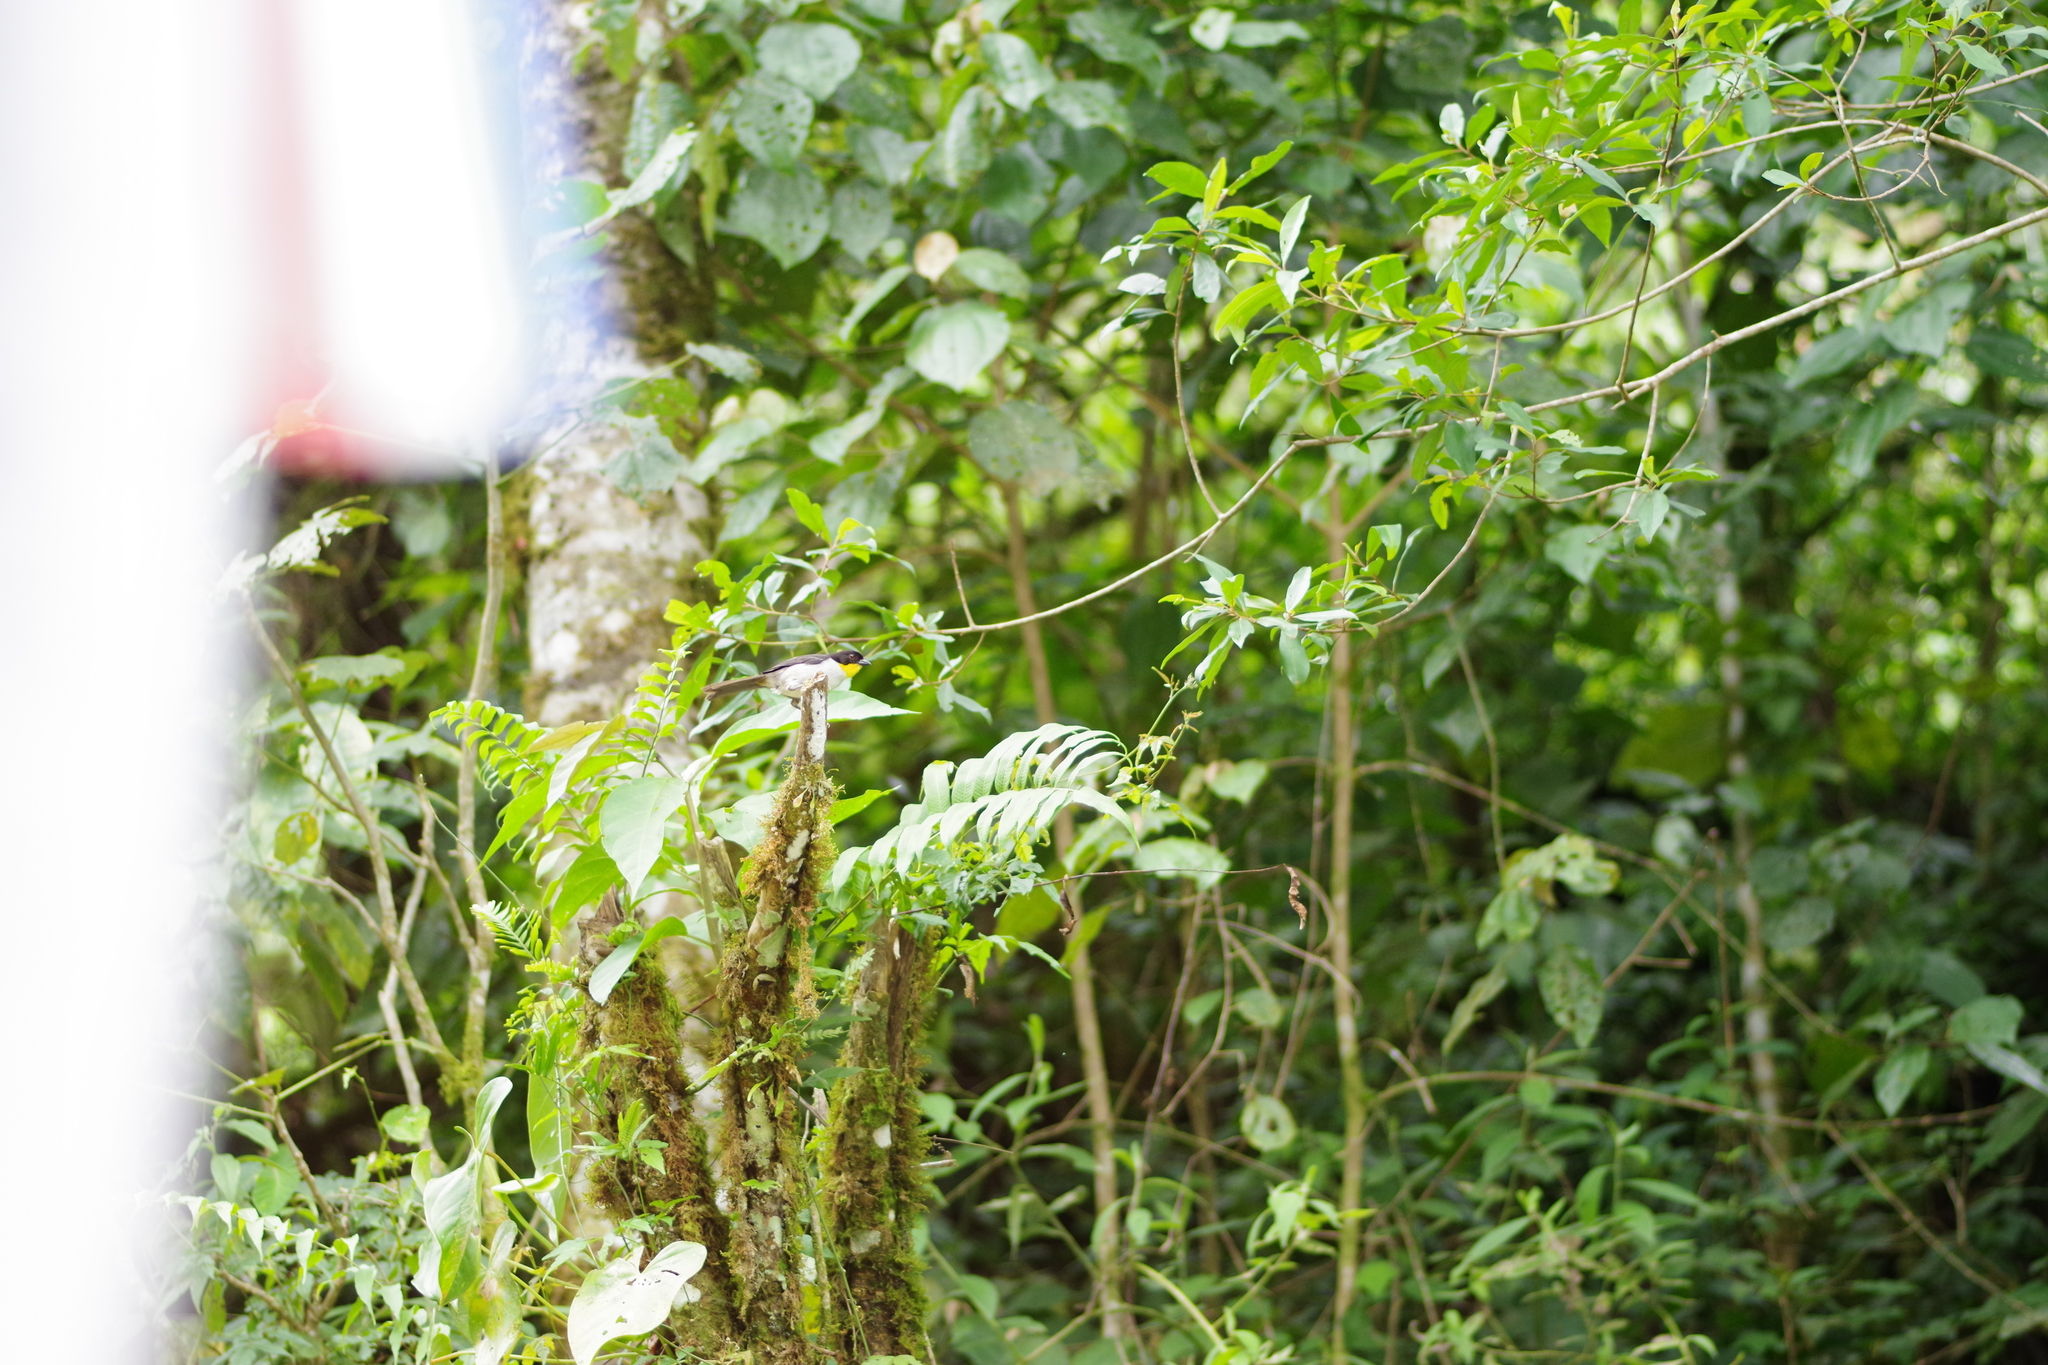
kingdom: Animalia
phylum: Chordata
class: Aves
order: Passeriformes
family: Passerellidae
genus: Atlapetes
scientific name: Atlapetes albinucha
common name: White-naped brush-finch
